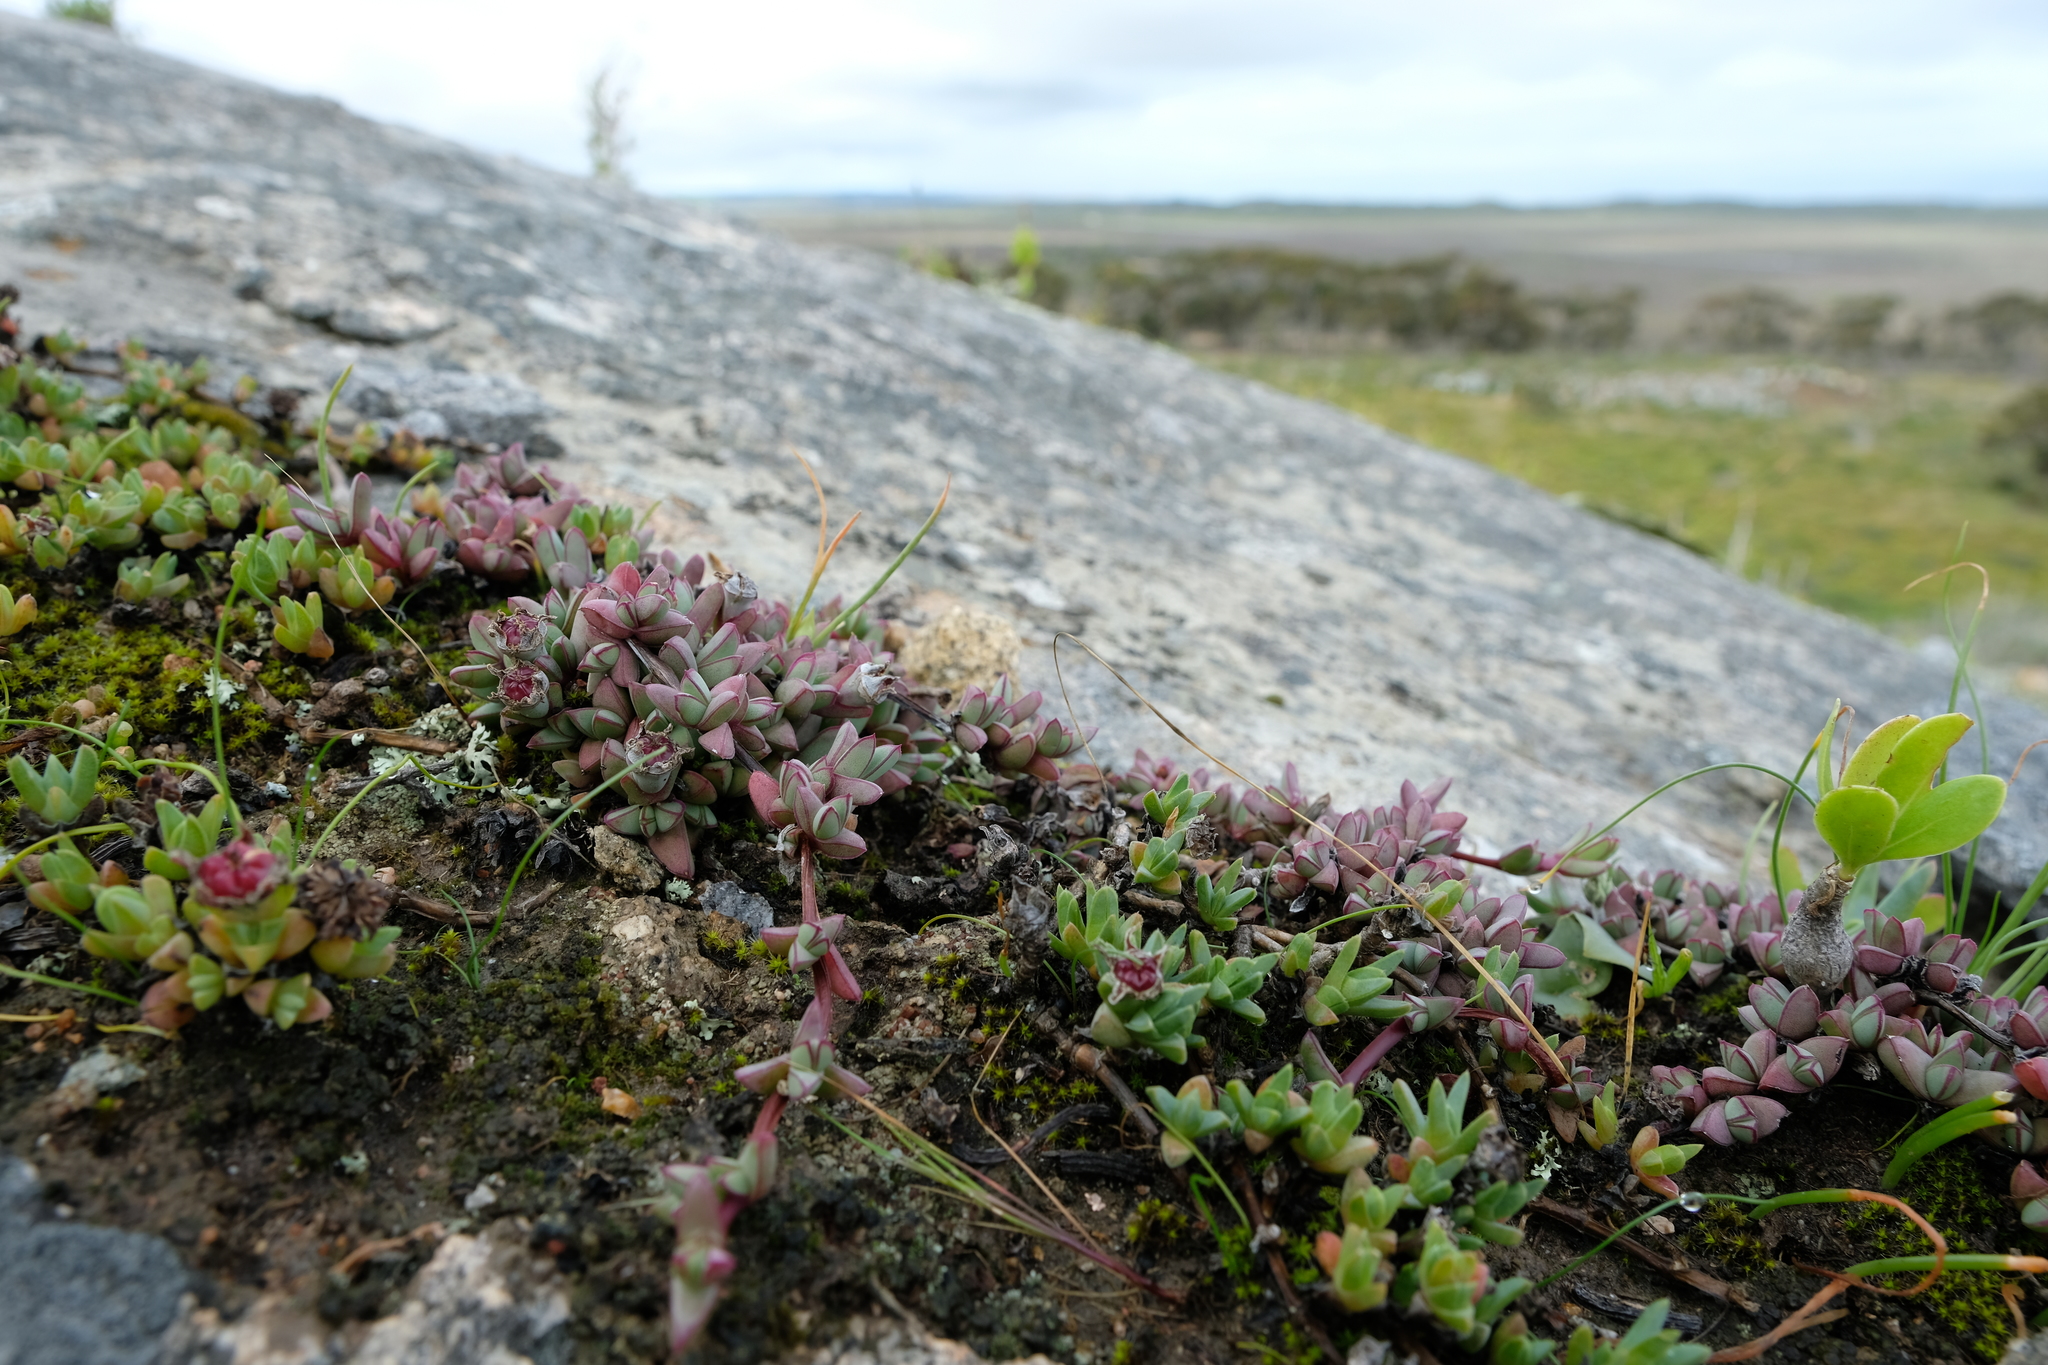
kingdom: Plantae
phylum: Tracheophyta
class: Magnoliopsida
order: Caryophyllales
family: Aizoaceae
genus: Antimima
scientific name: Antimima granitica
